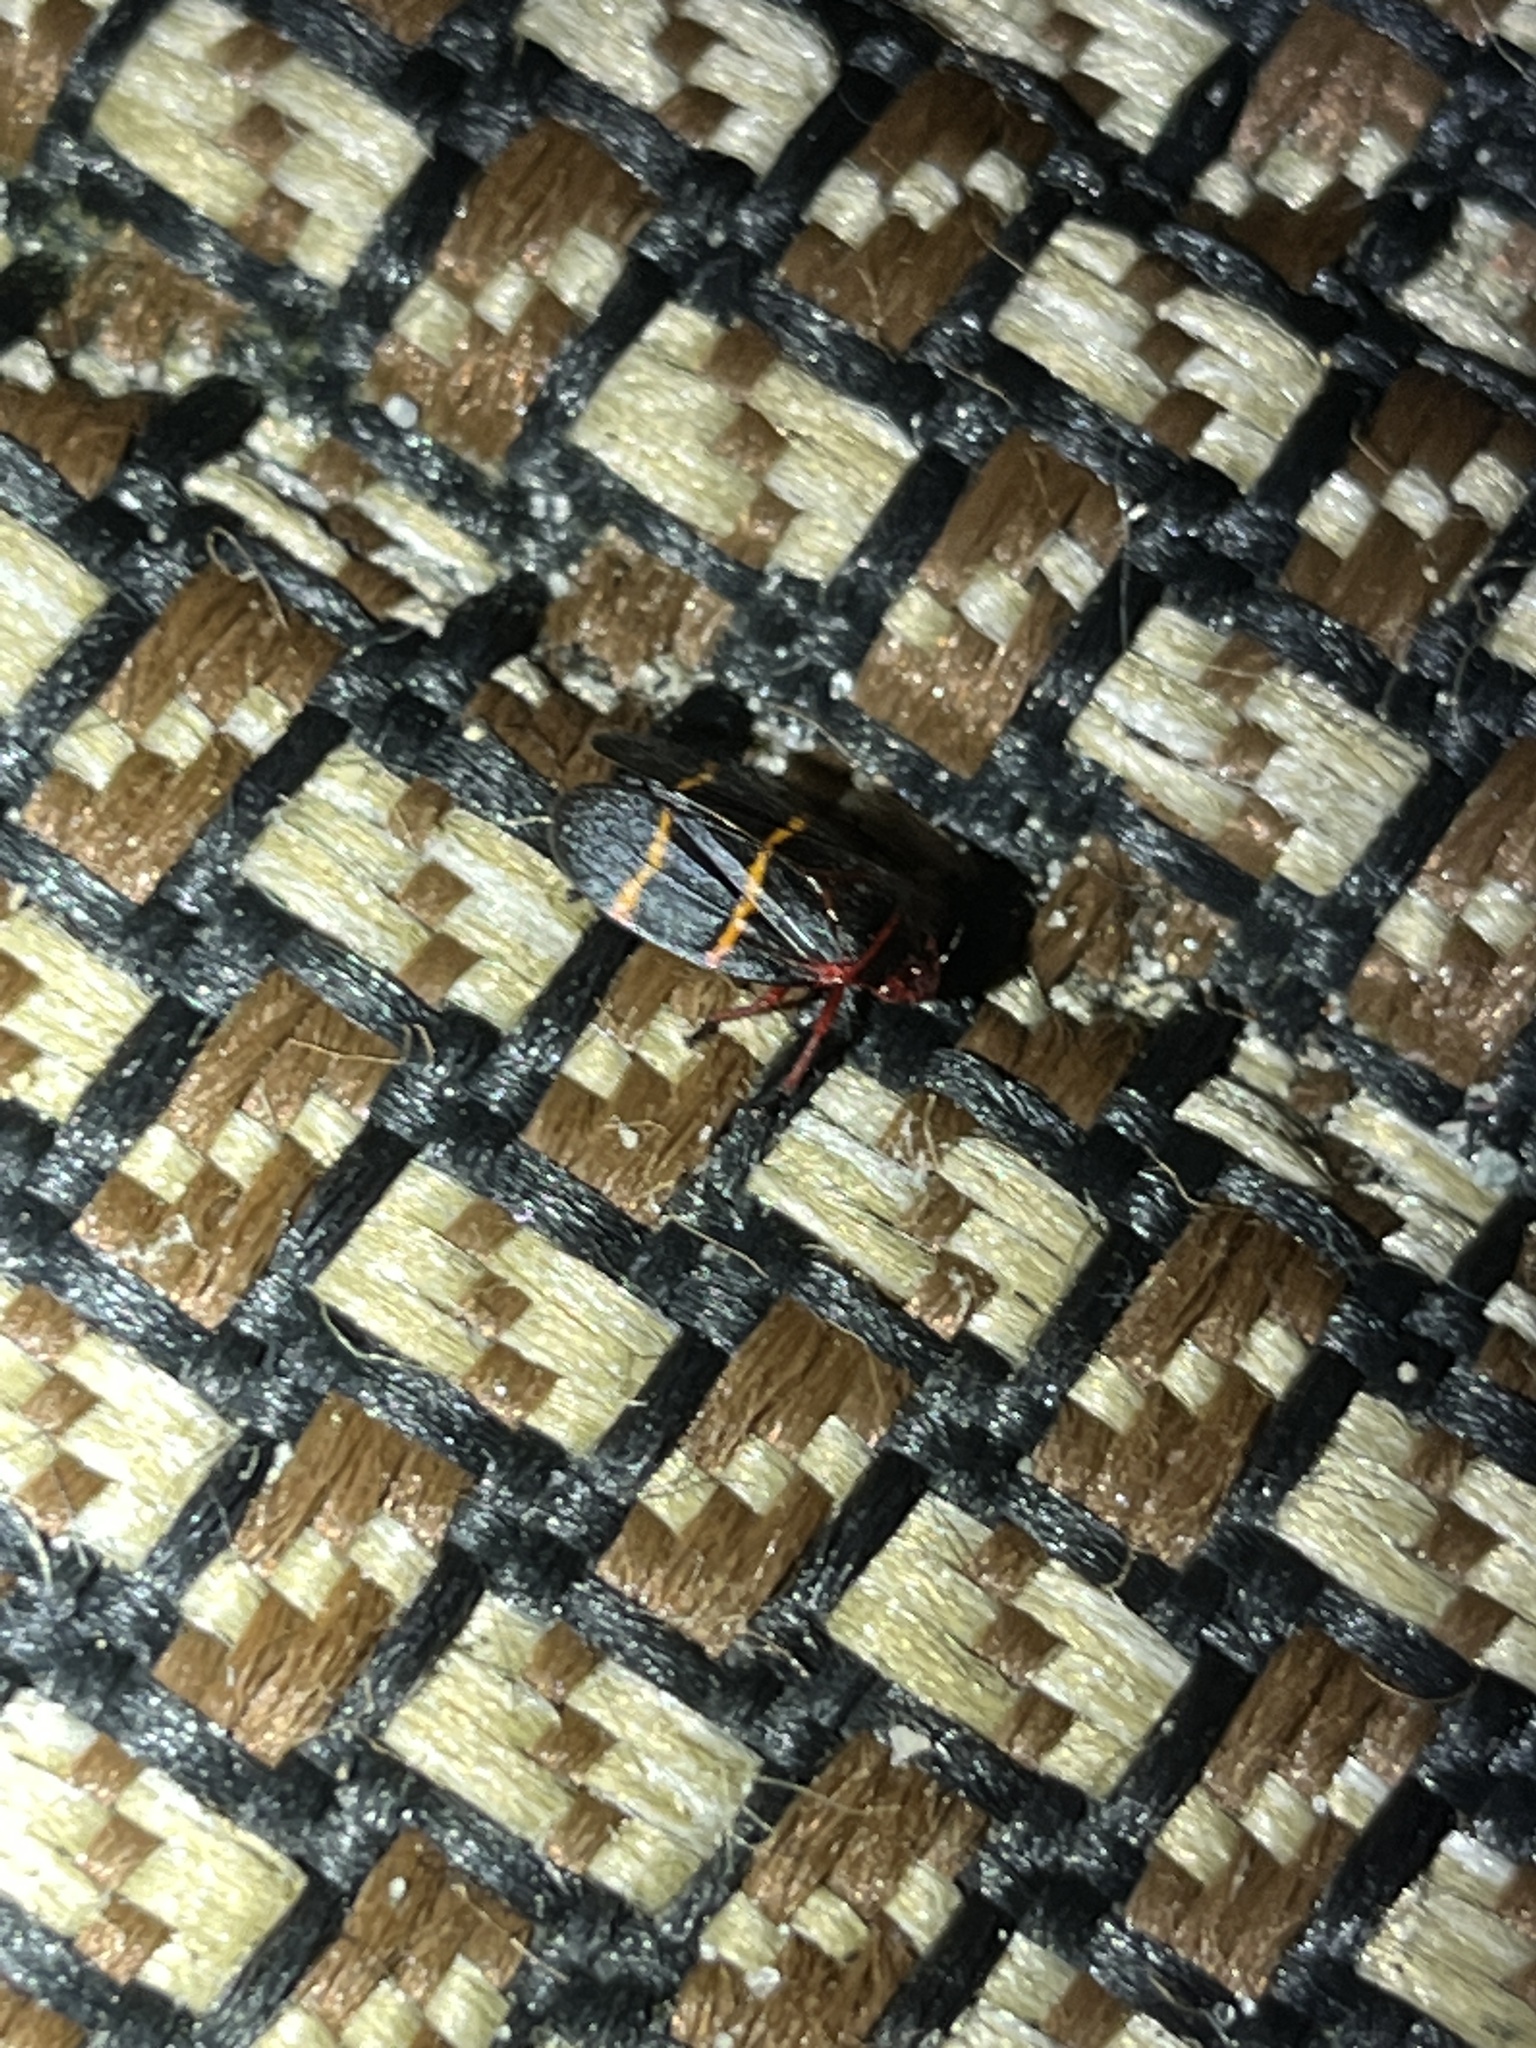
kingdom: Animalia
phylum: Arthropoda
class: Insecta
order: Hemiptera
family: Cercopidae
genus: Prosapia
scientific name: Prosapia bicincta
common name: Twolined spittlebug
